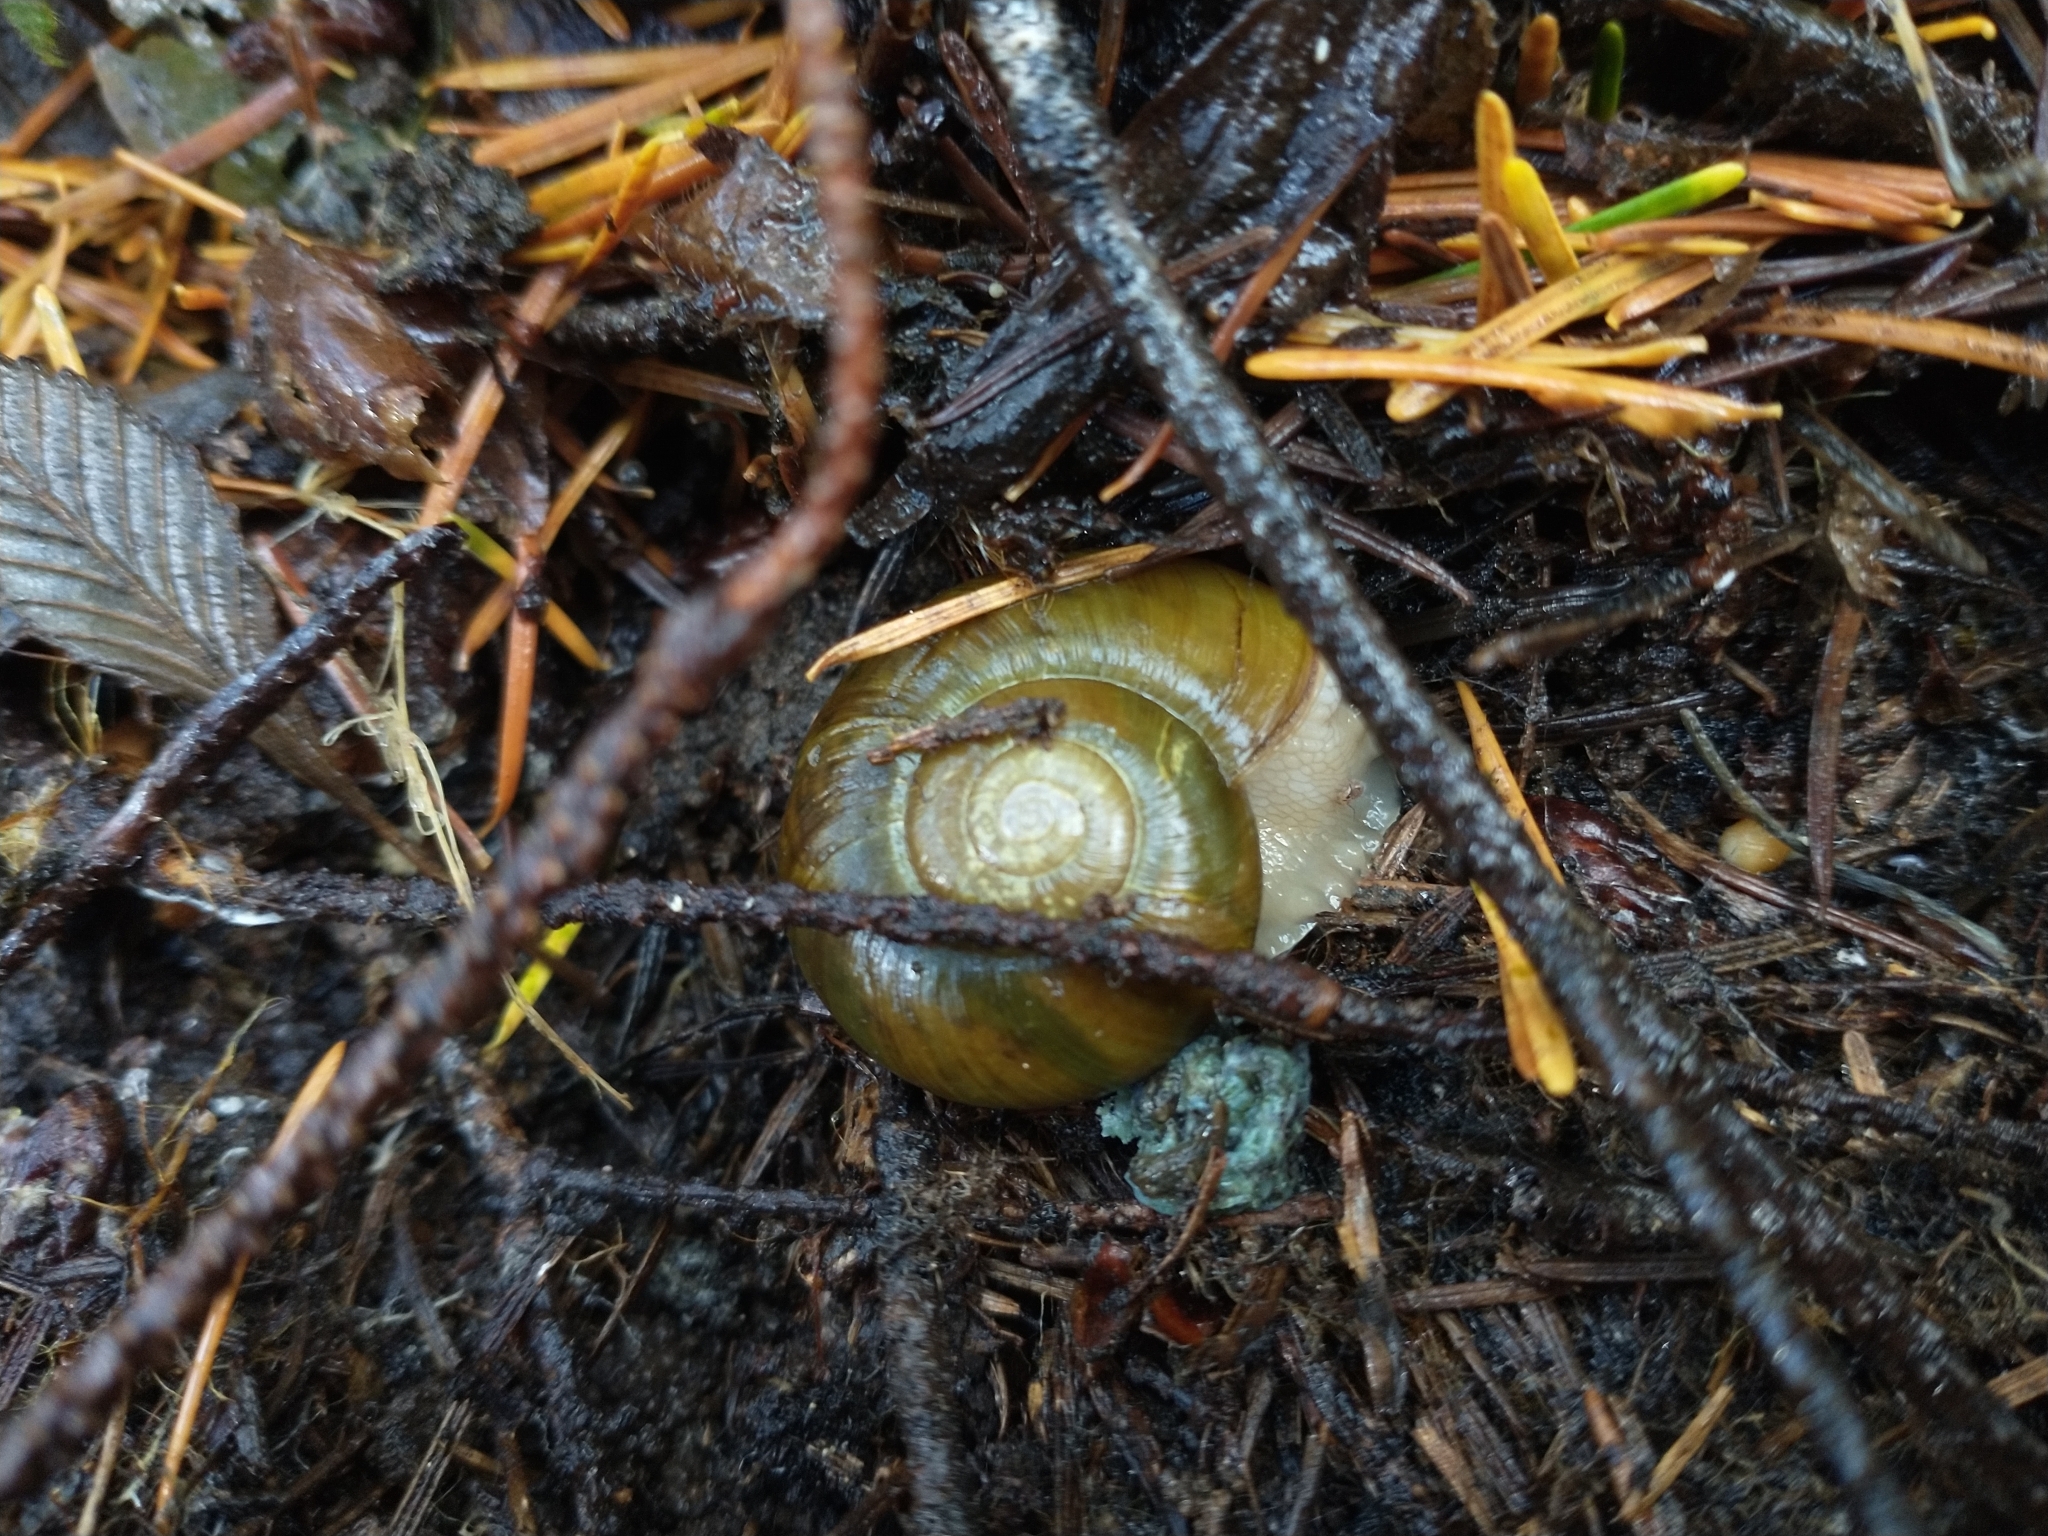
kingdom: Animalia
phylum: Mollusca
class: Gastropoda
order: Stylommatophora
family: Haplotrematidae
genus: Haplotrema
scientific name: Haplotrema vancouverense
